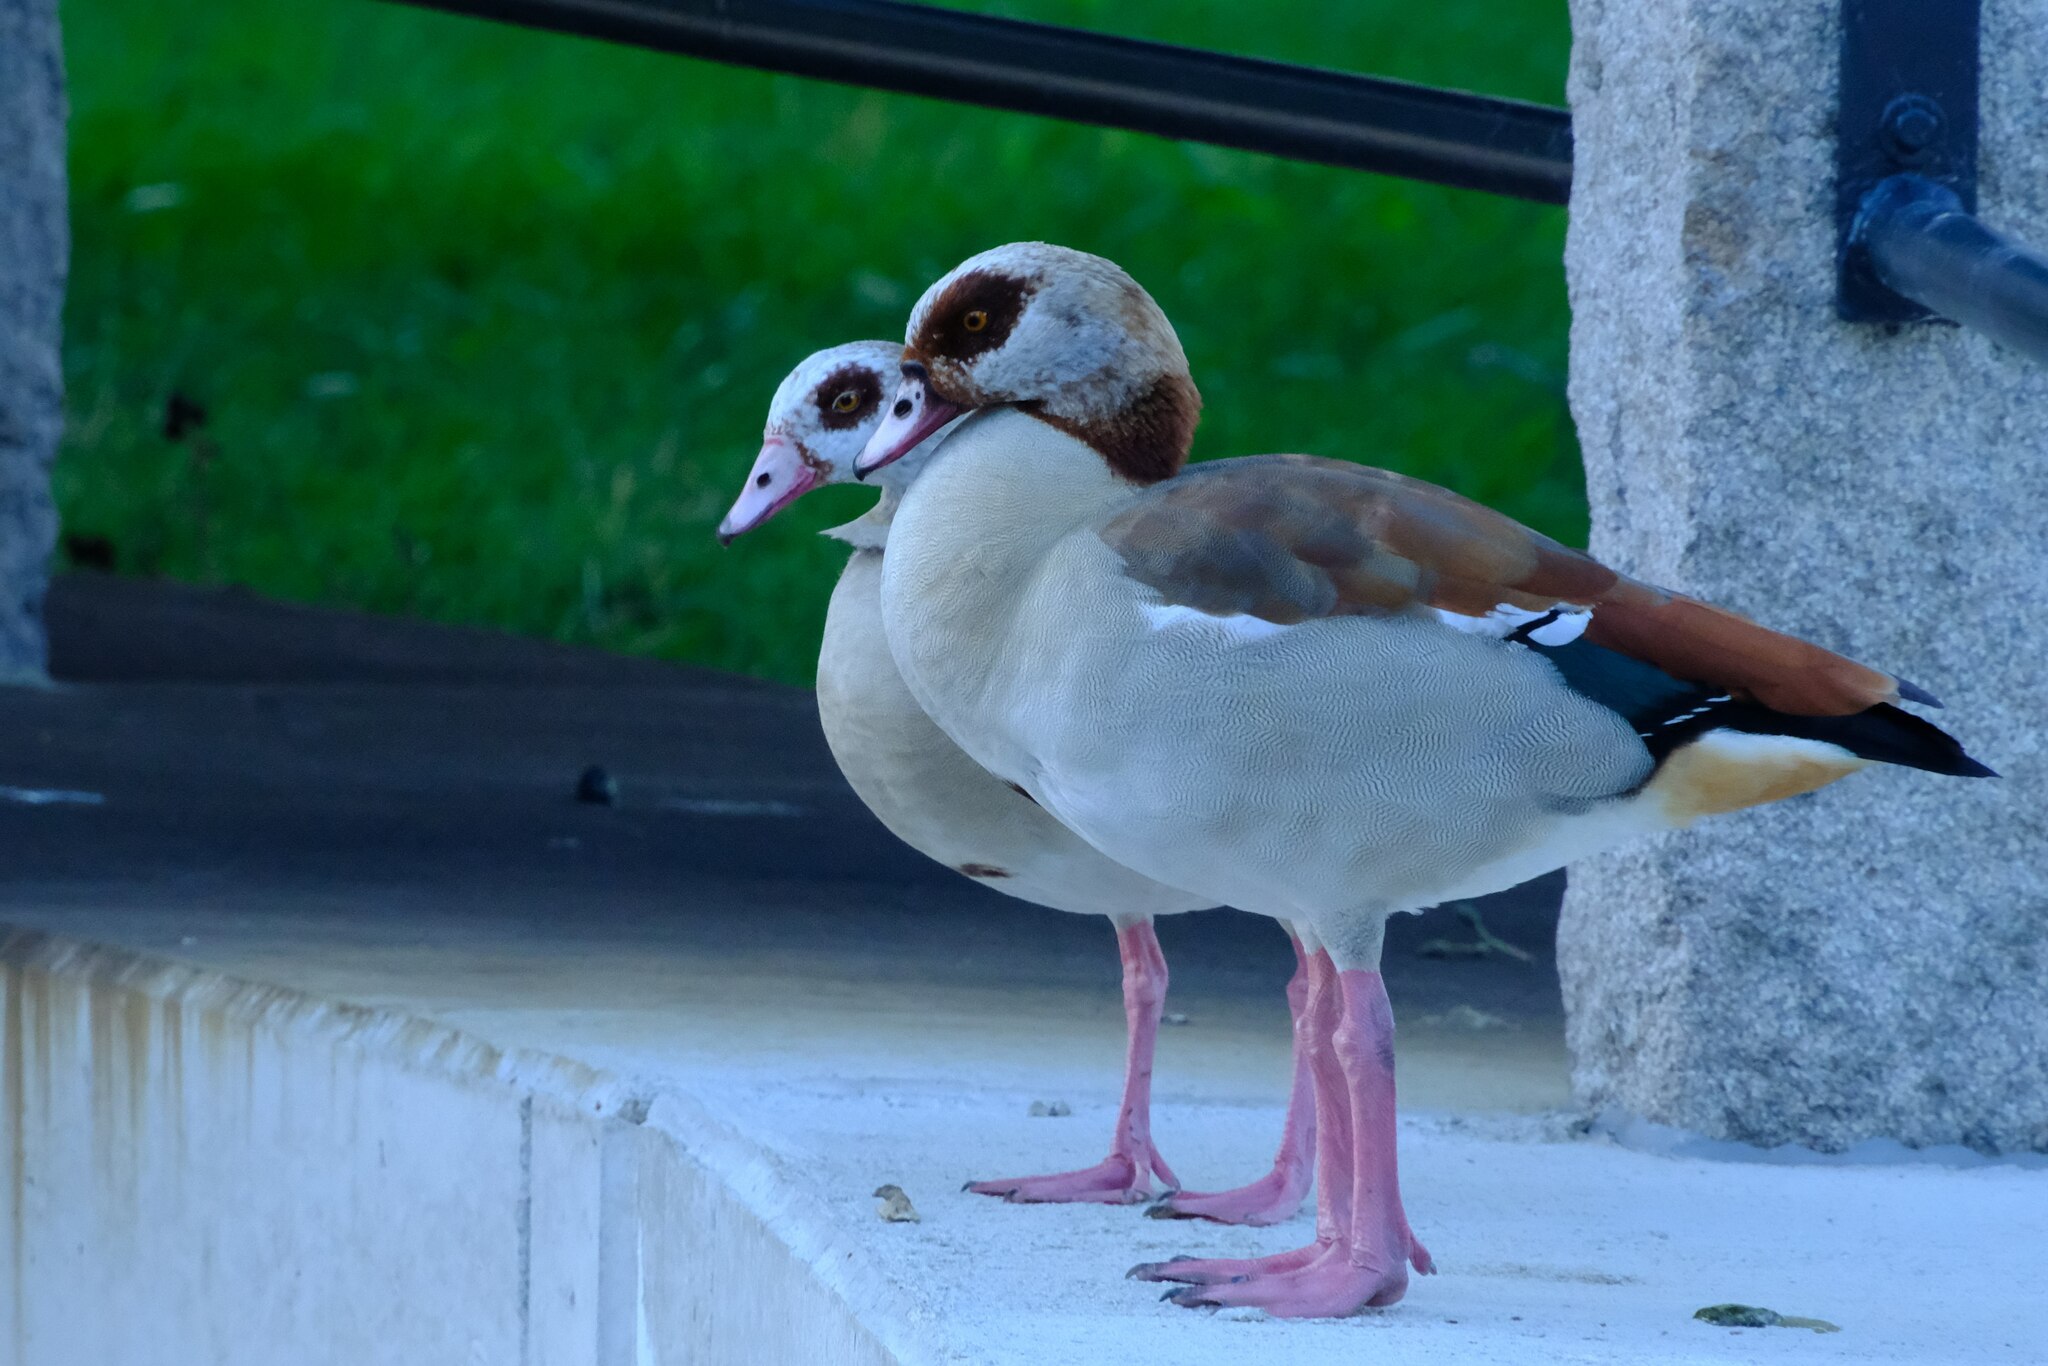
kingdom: Animalia
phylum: Chordata
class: Aves
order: Anseriformes
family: Anatidae
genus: Alopochen
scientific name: Alopochen aegyptiaca
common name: Egyptian goose
